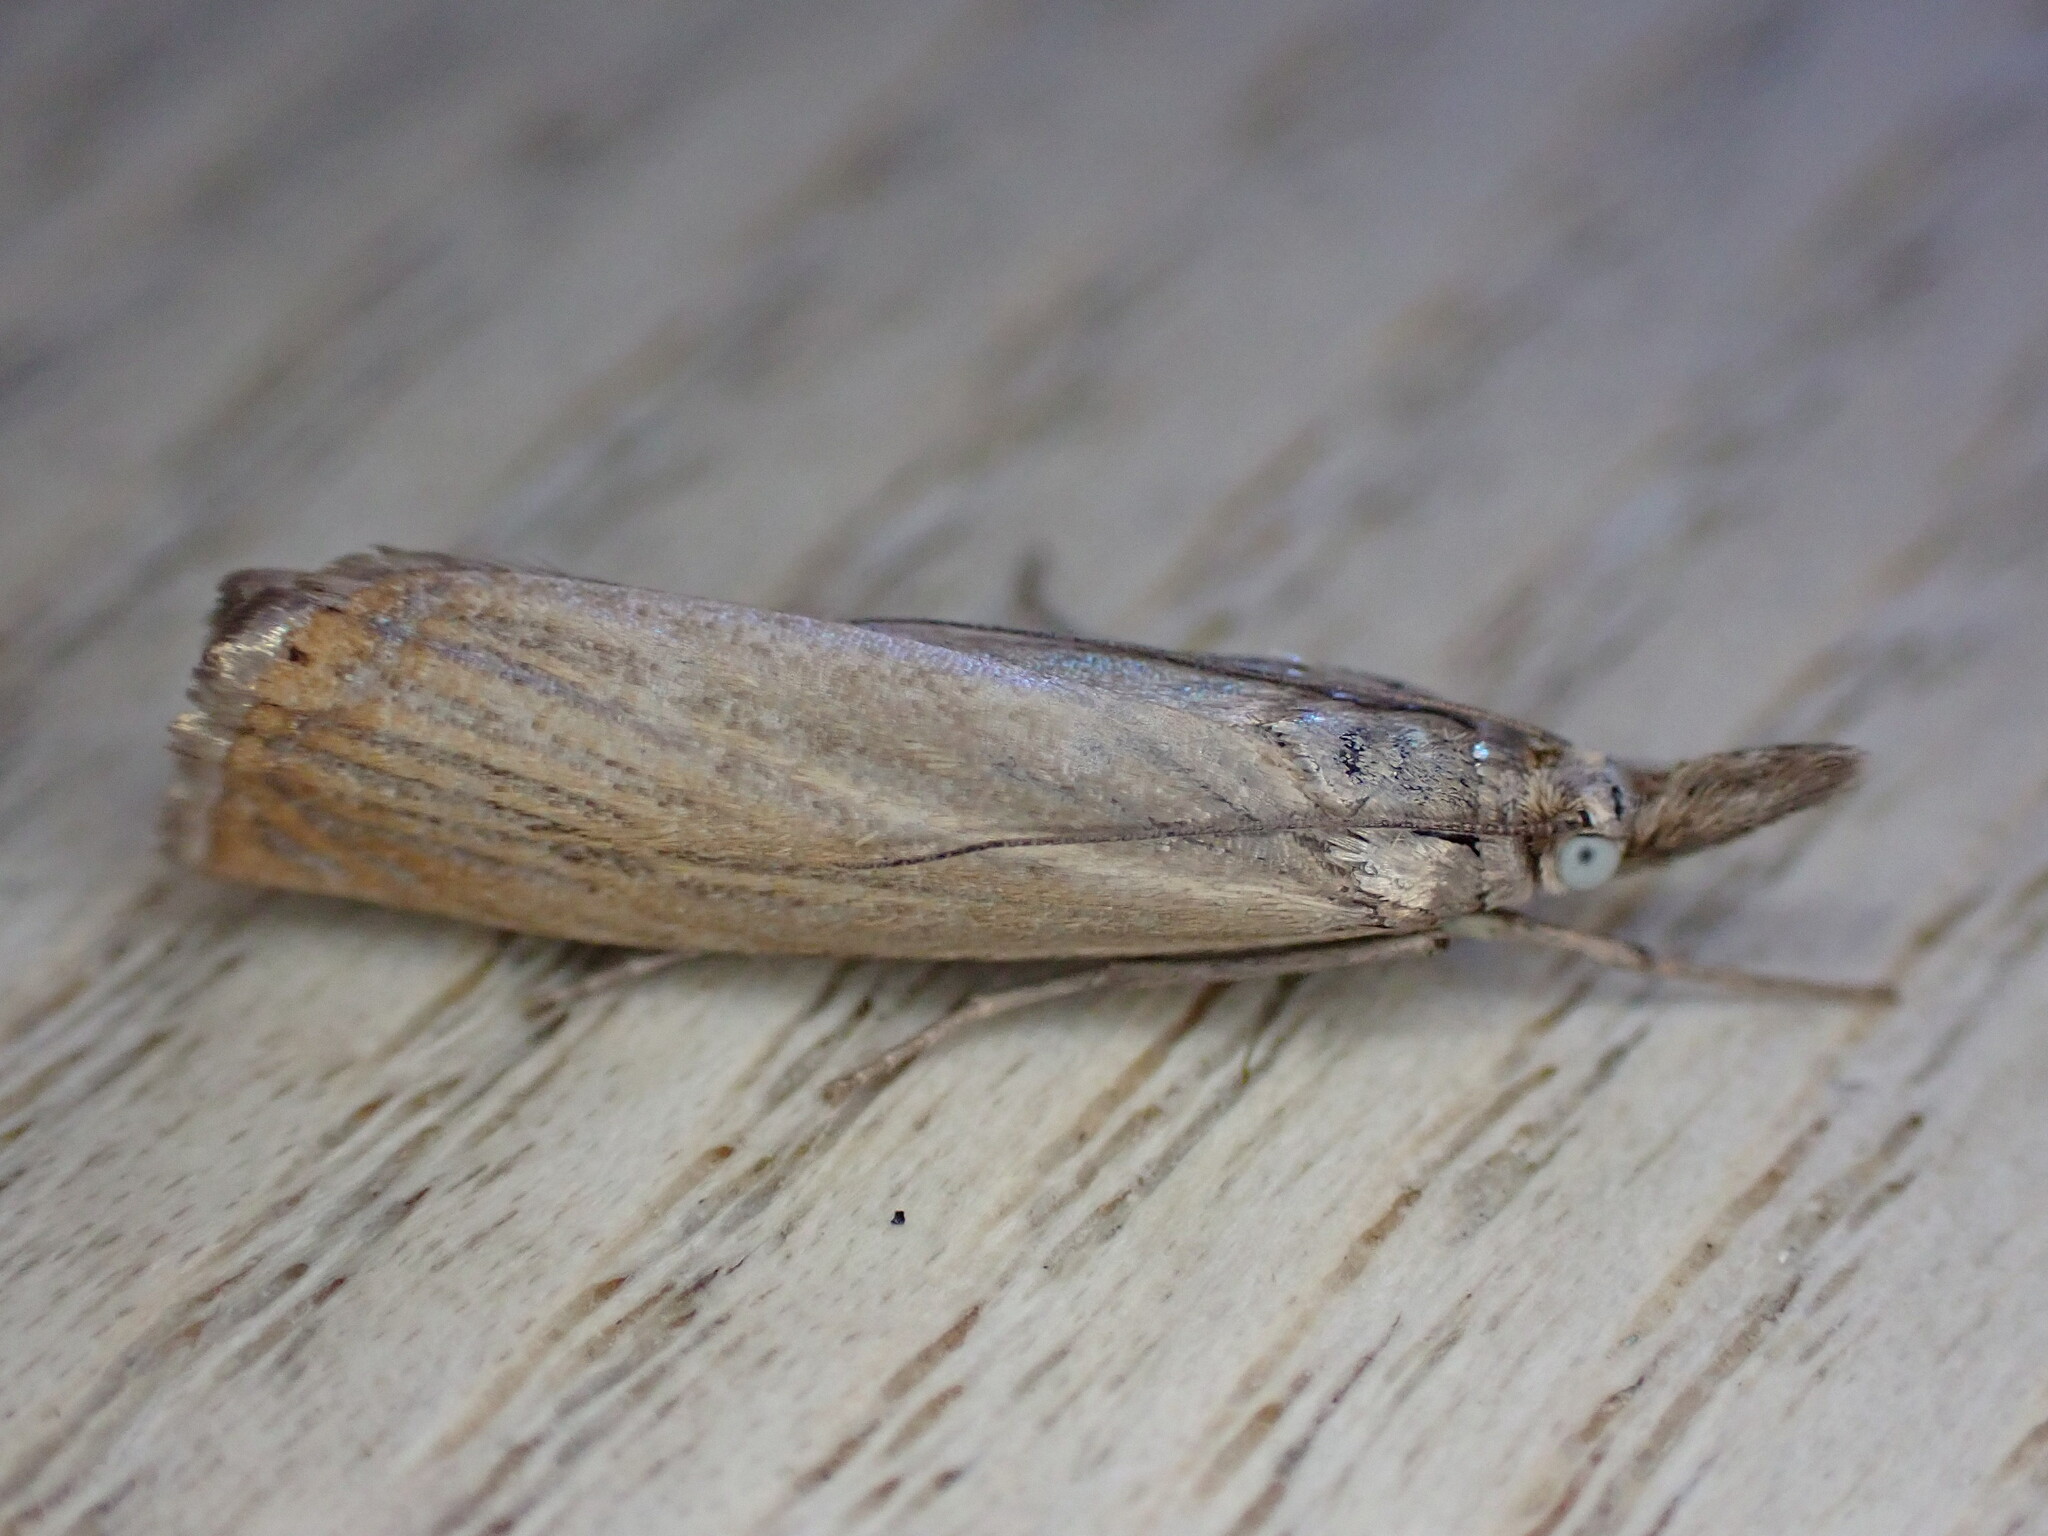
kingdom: Animalia
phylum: Arthropoda
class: Insecta
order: Lepidoptera
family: Crambidae
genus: Chrysoteuchia
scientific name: Chrysoteuchia culmella
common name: Garden grass-veneer
